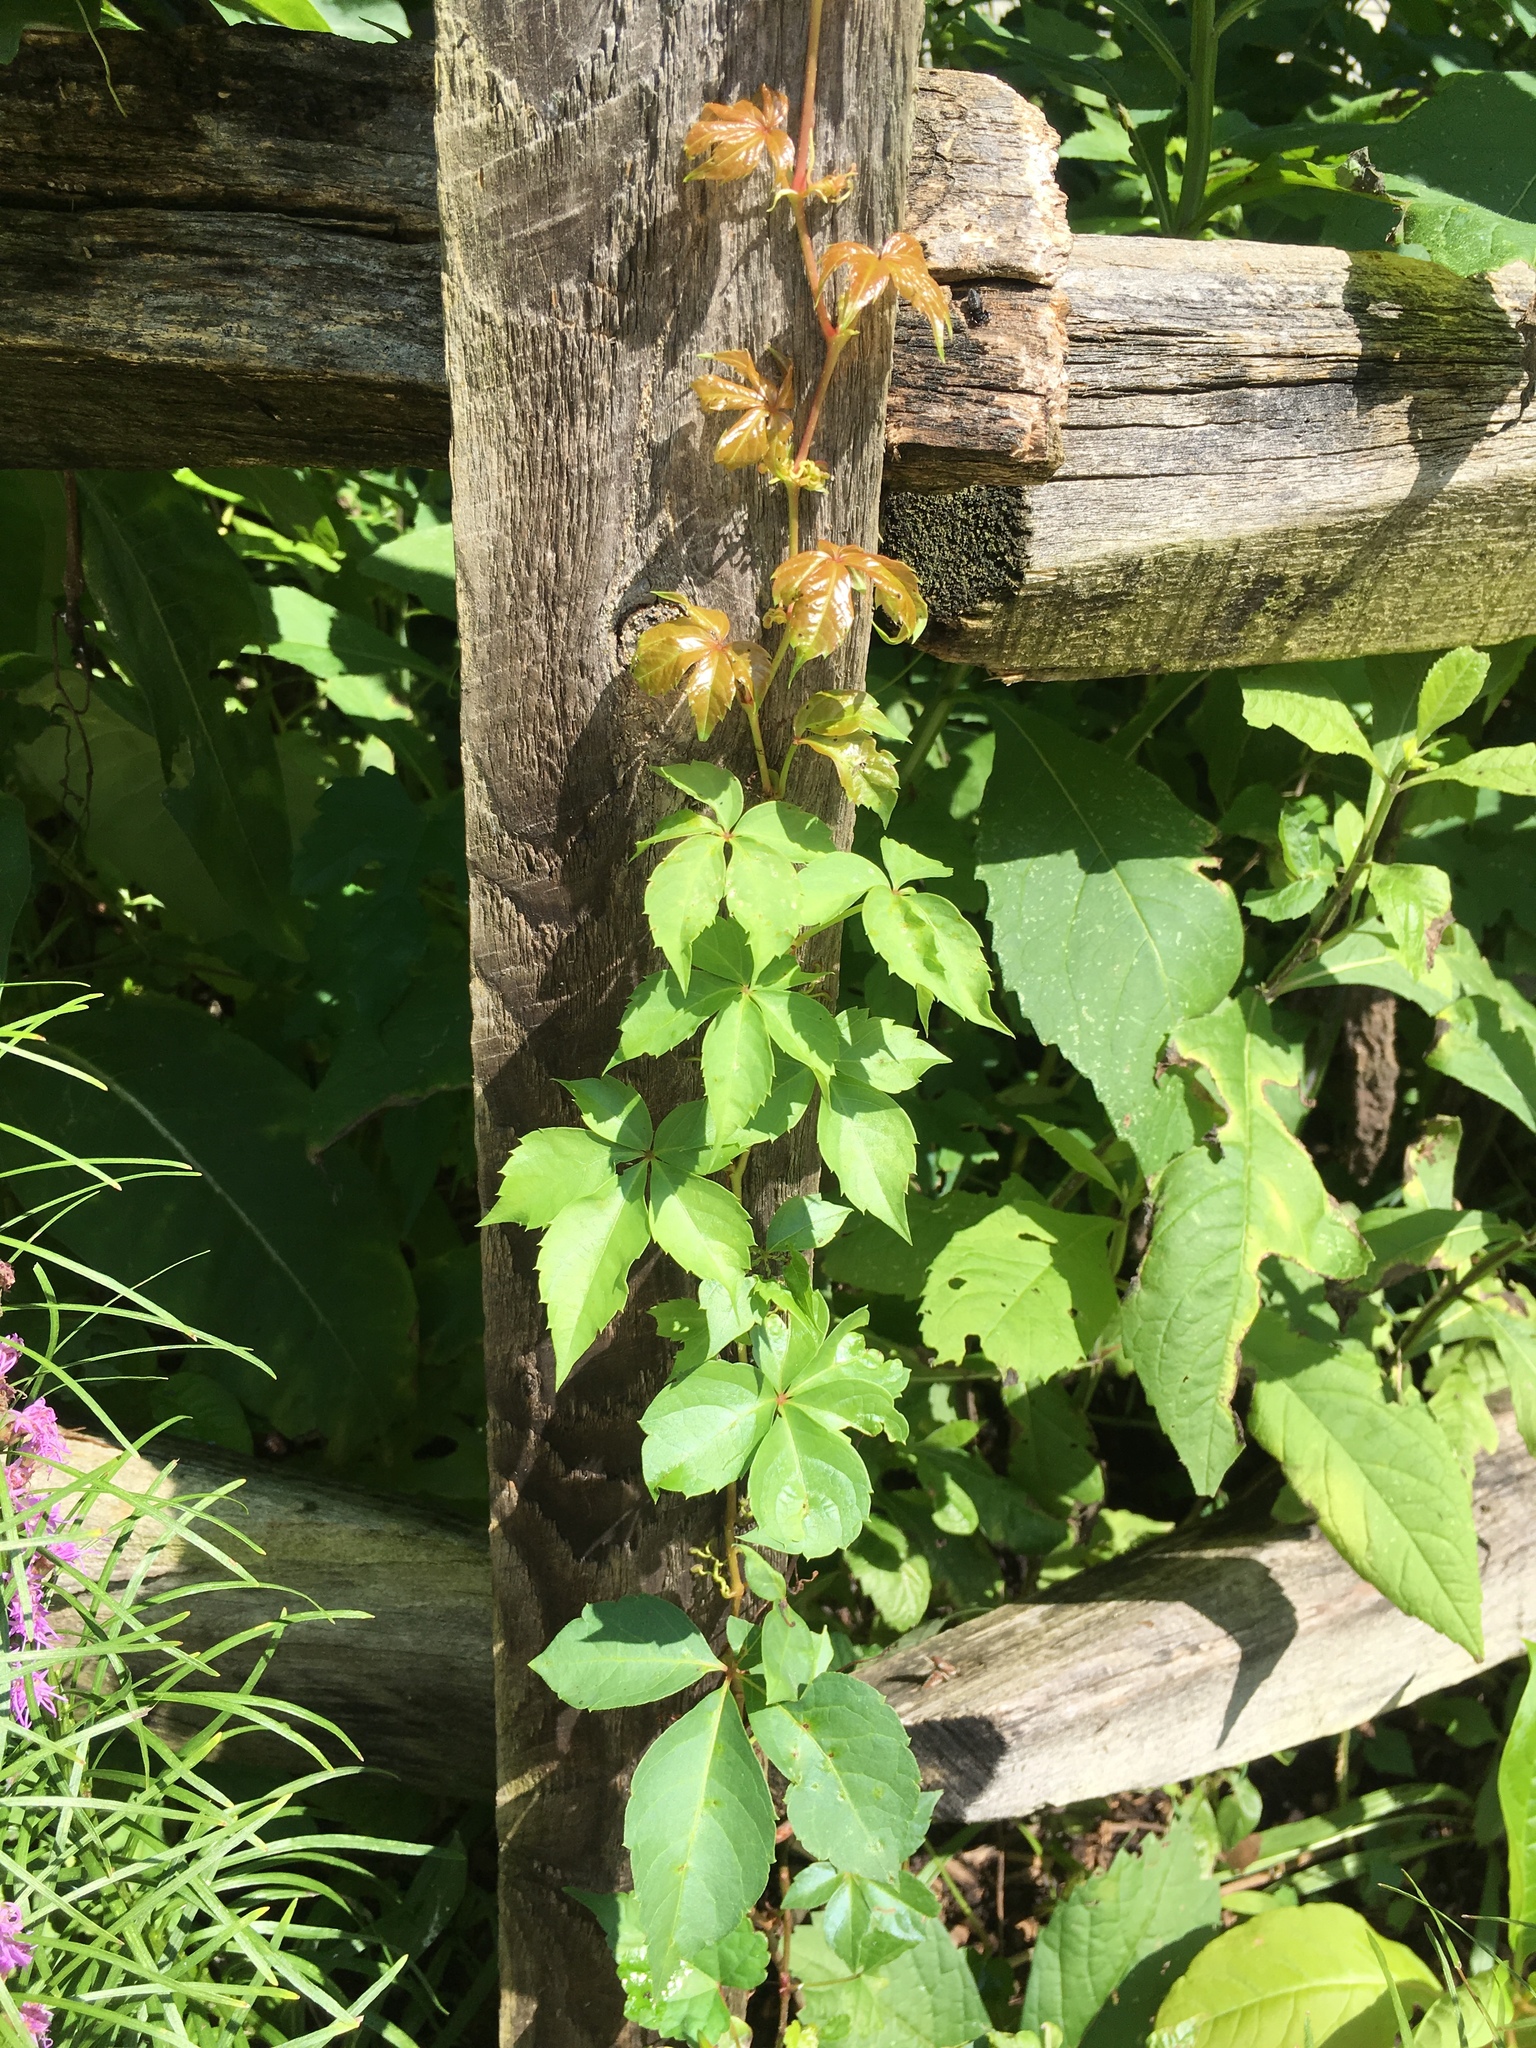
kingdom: Plantae
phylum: Tracheophyta
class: Magnoliopsida
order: Vitales
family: Vitaceae
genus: Parthenocissus
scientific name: Parthenocissus quinquefolia
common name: Virginia-creeper
